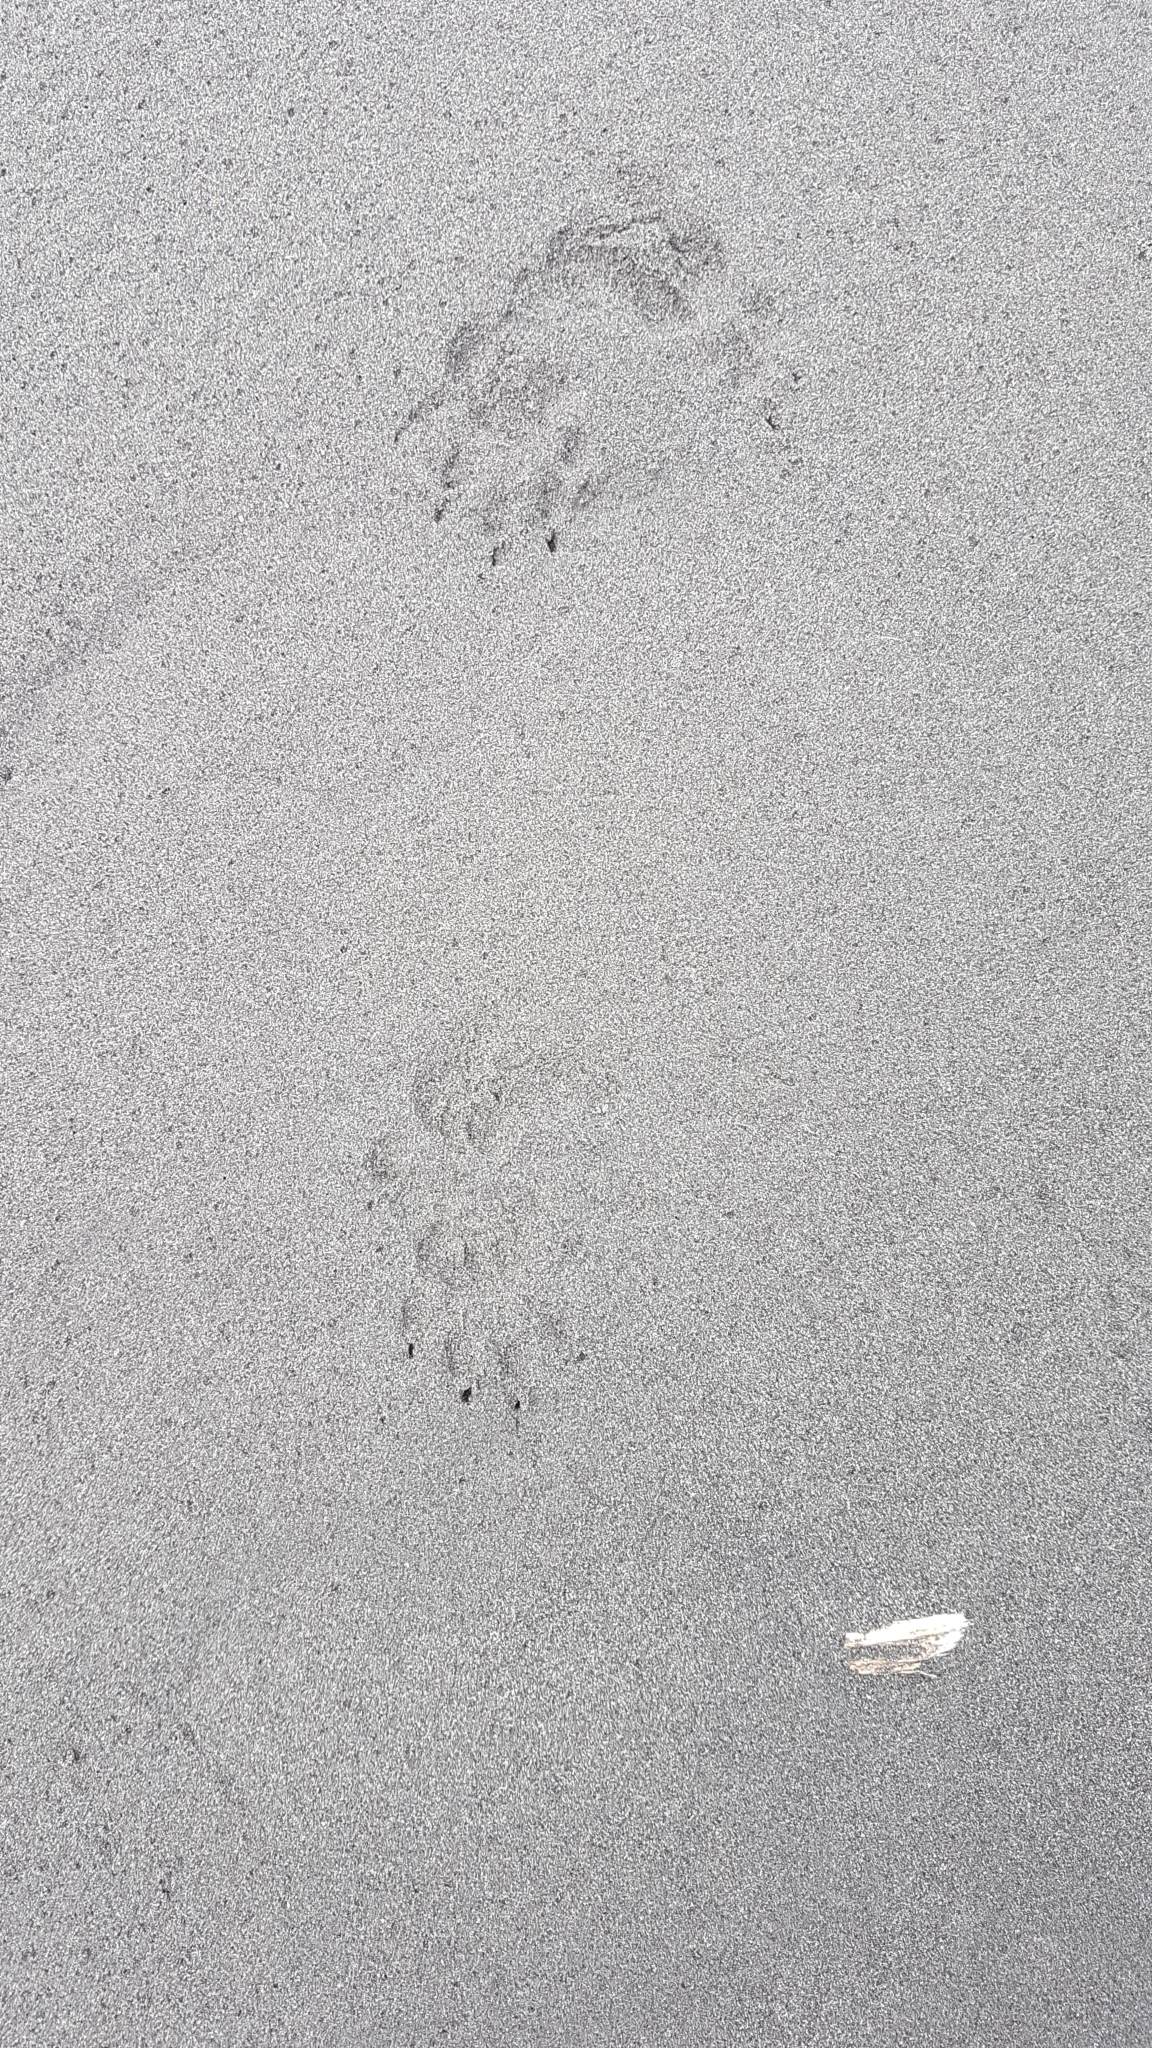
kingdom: Animalia
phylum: Chordata
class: Mammalia
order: Diprotodontia
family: Phalangeridae
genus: Trichosurus
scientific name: Trichosurus vulpecula
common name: Common brushtail
